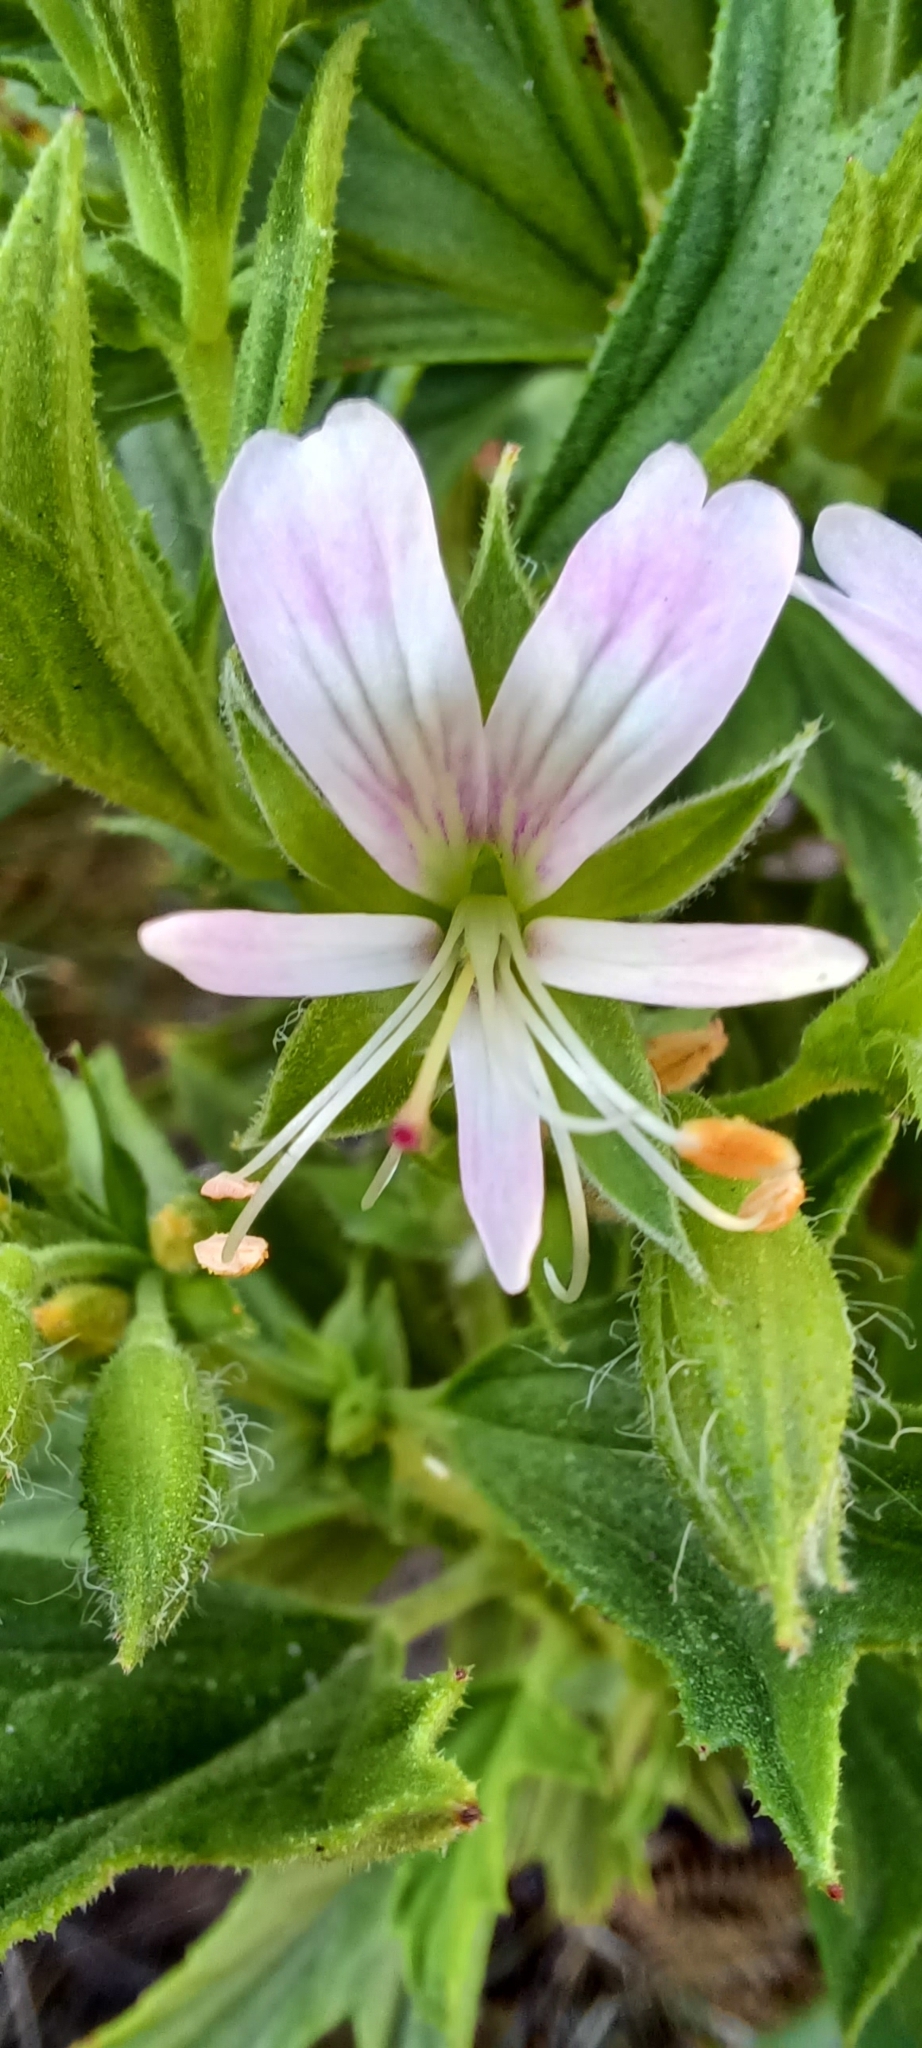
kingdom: Plantae
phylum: Tracheophyta
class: Magnoliopsida
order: Geraniales
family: Geraniaceae
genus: Pelargonium
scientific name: Pelargonium scabrum
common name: Apricot geranium
